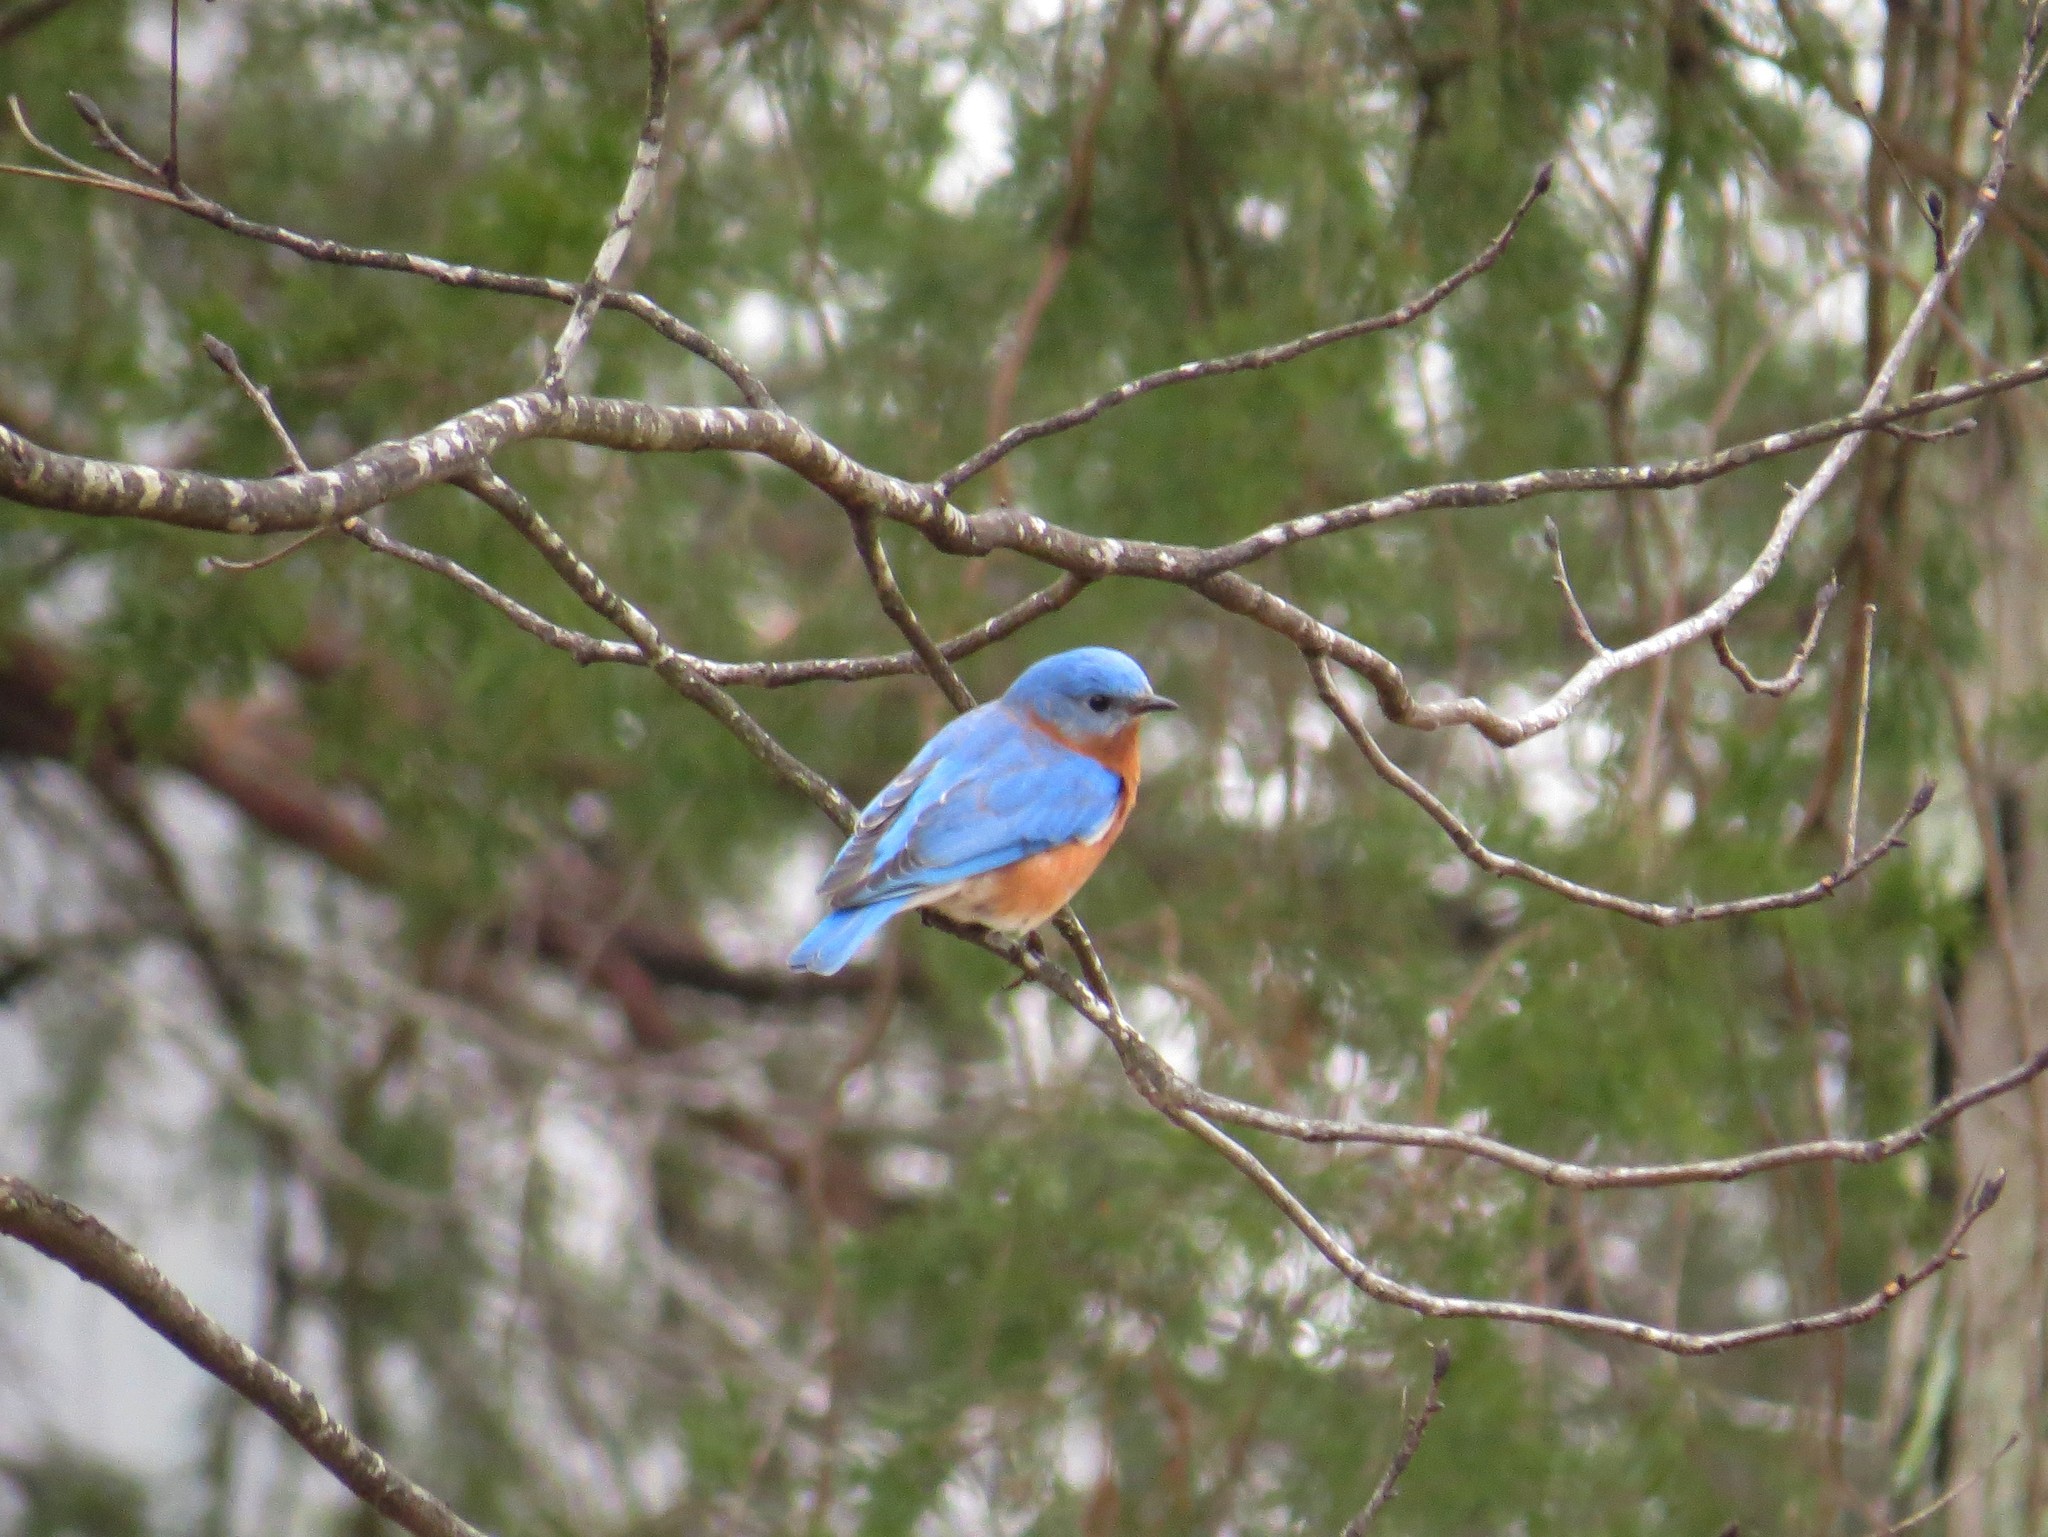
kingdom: Animalia
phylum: Chordata
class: Aves
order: Passeriformes
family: Turdidae
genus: Sialia
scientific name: Sialia sialis
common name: Eastern bluebird
